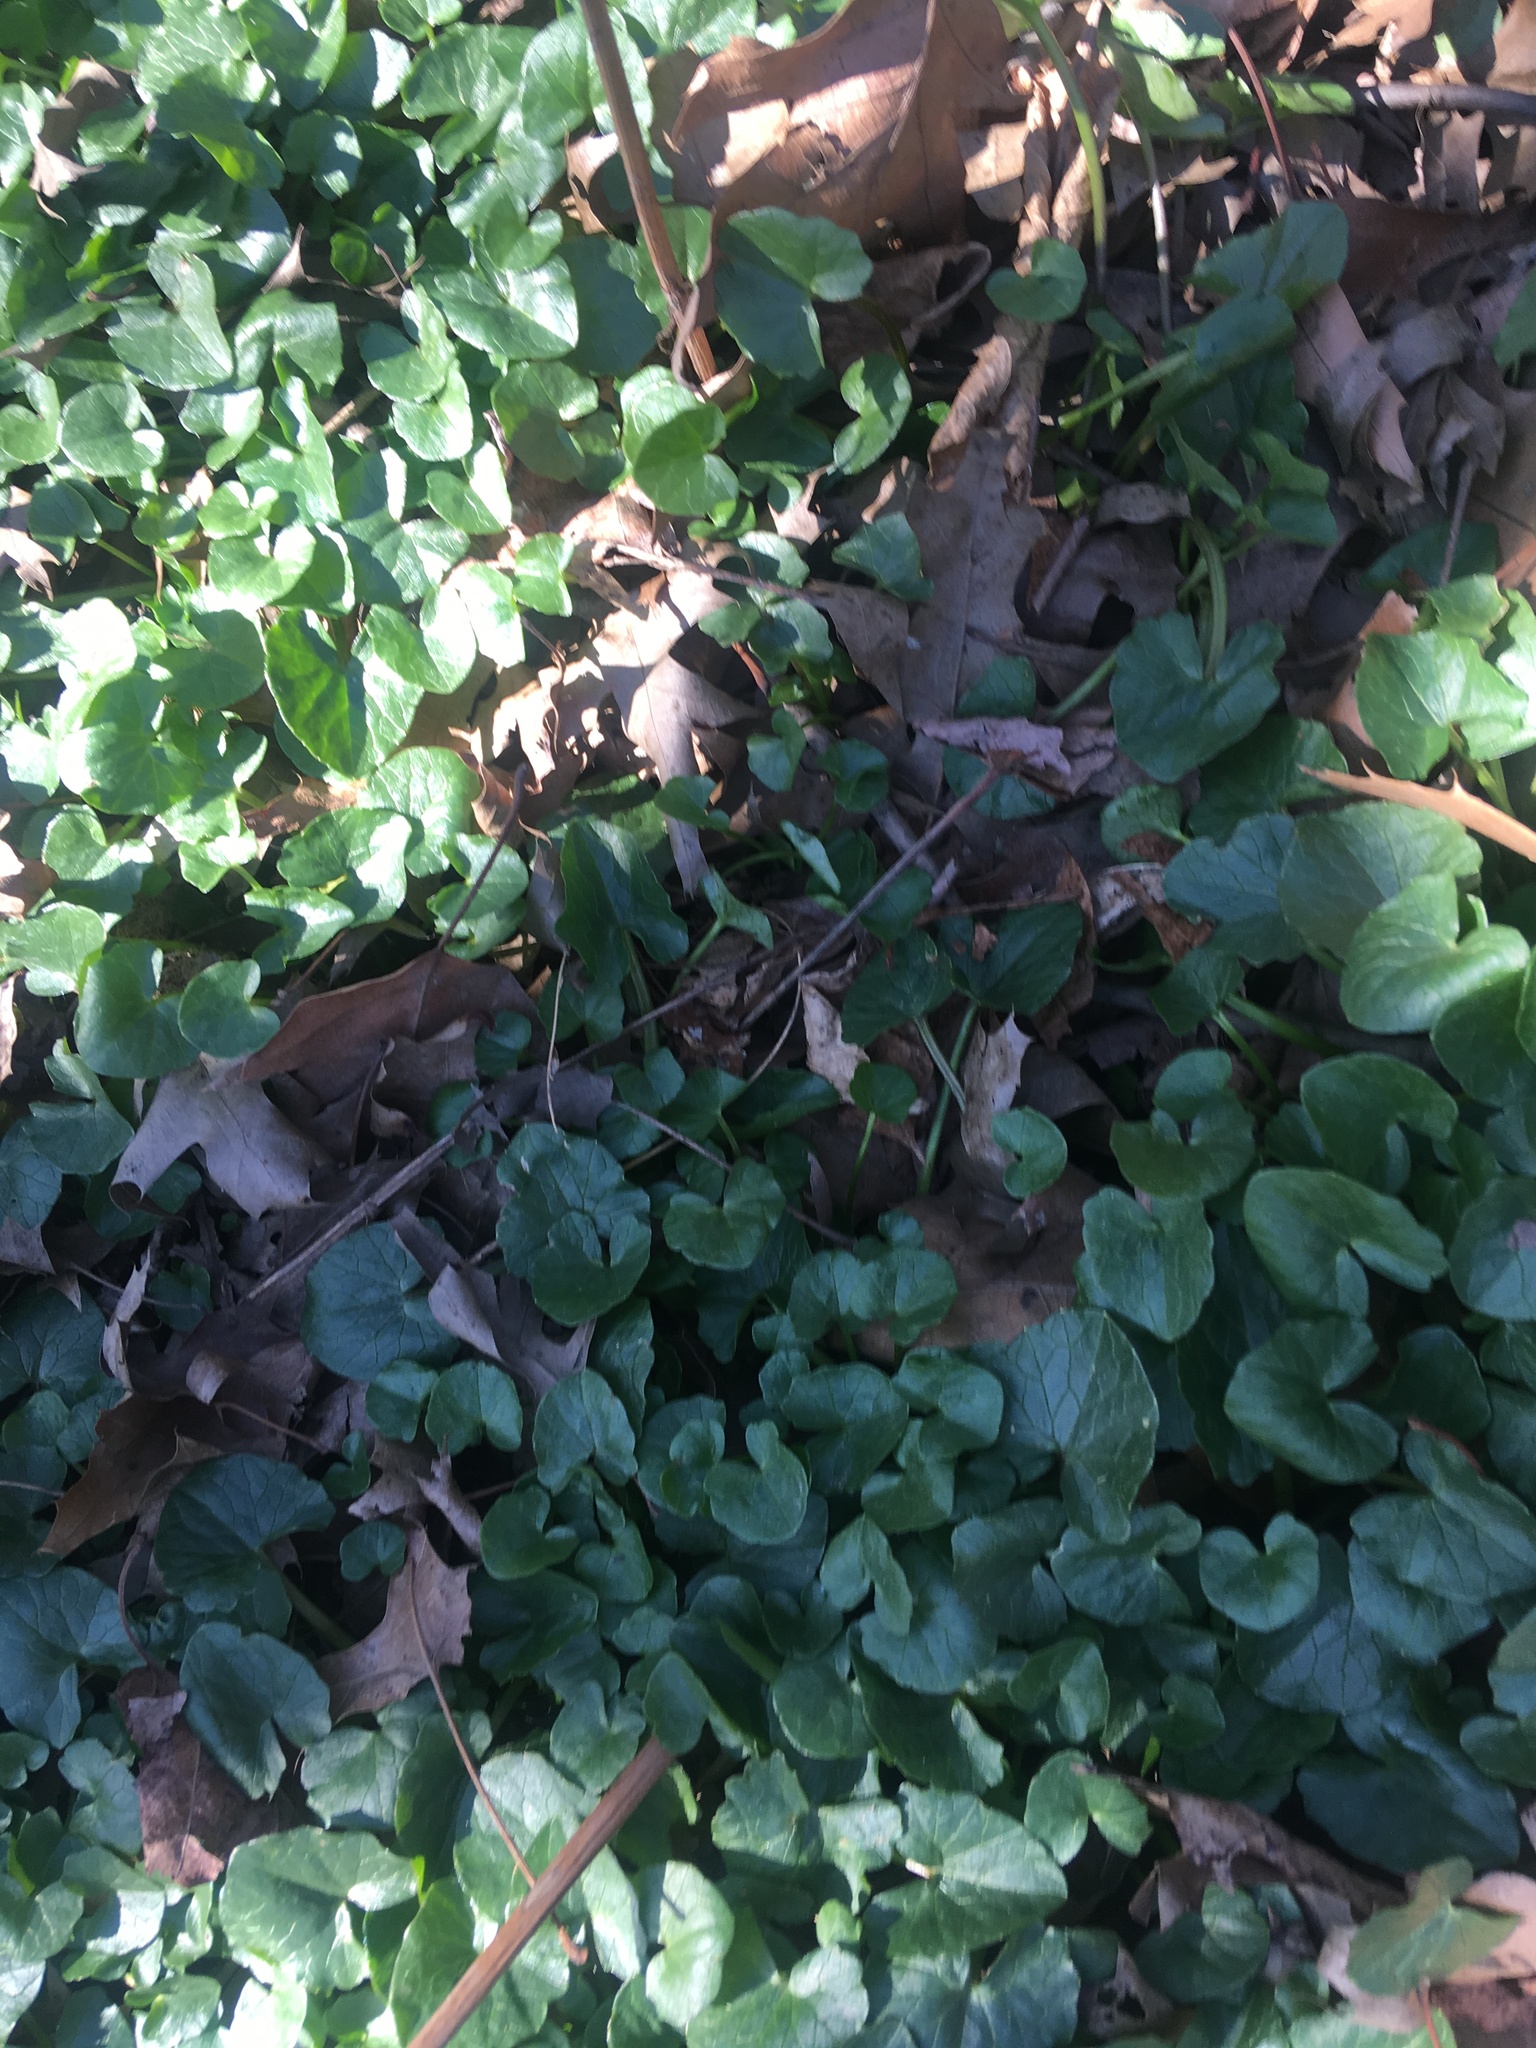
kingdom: Plantae
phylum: Tracheophyta
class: Magnoliopsida
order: Ranunculales
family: Ranunculaceae
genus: Ficaria
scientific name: Ficaria verna
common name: Lesser celandine
